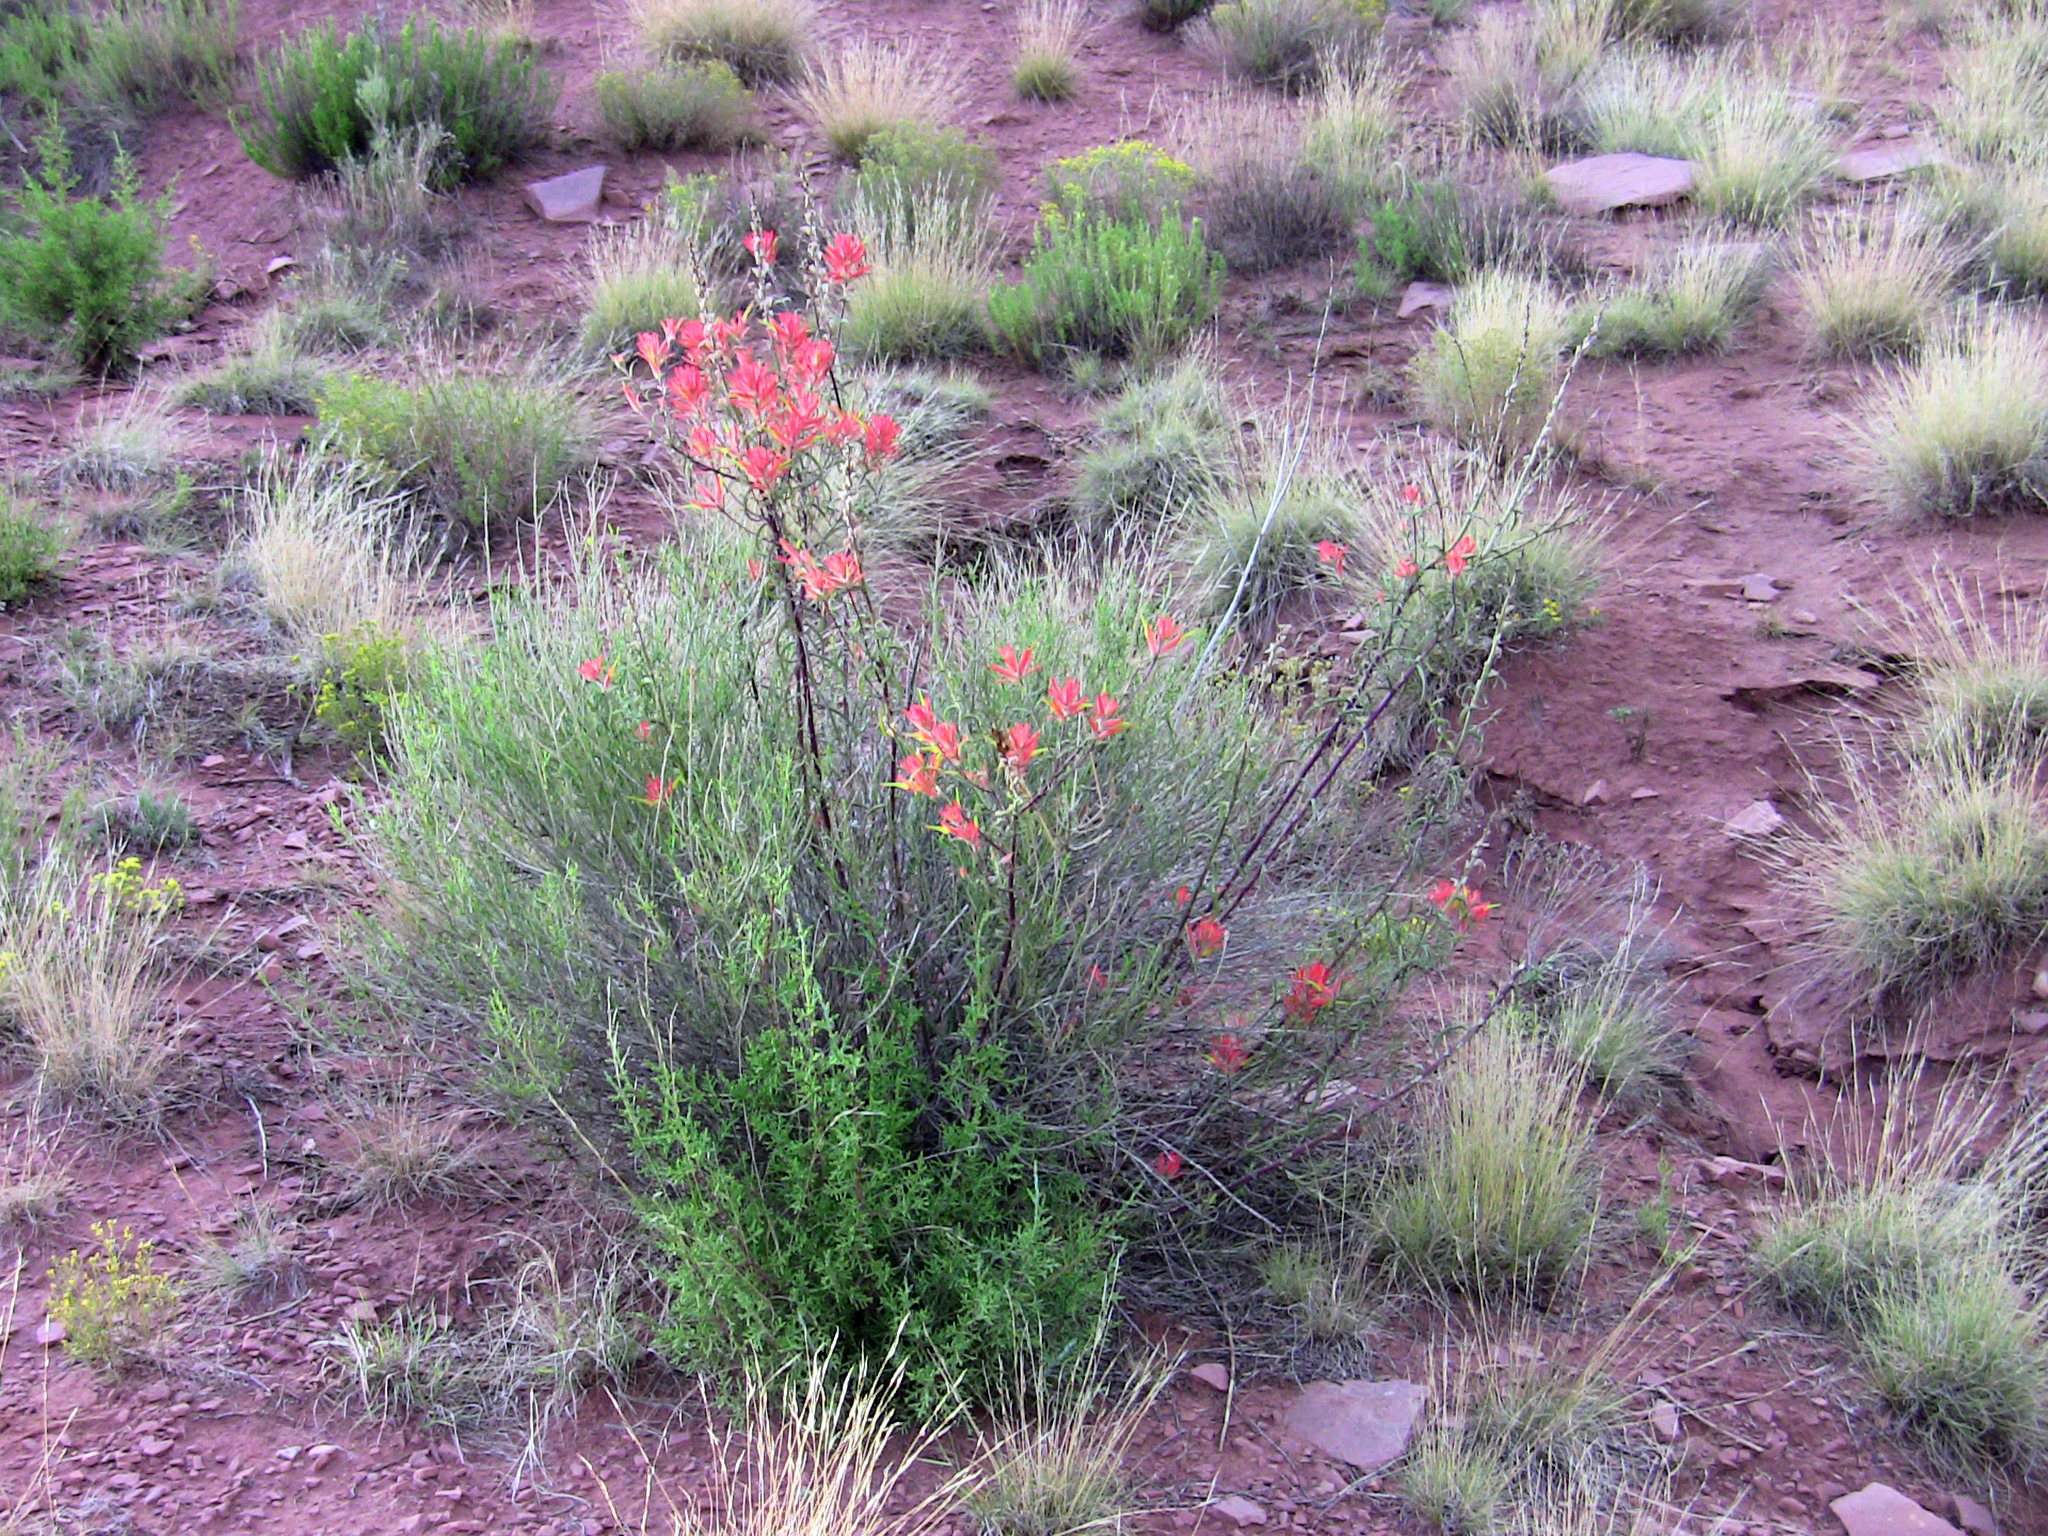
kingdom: Plantae
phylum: Tracheophyta
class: Magnoliopsida
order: Lamiales
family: Orobanchaceae
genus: Castilleja
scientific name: Castilleja linariifolia
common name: Wyoming paintbrush
